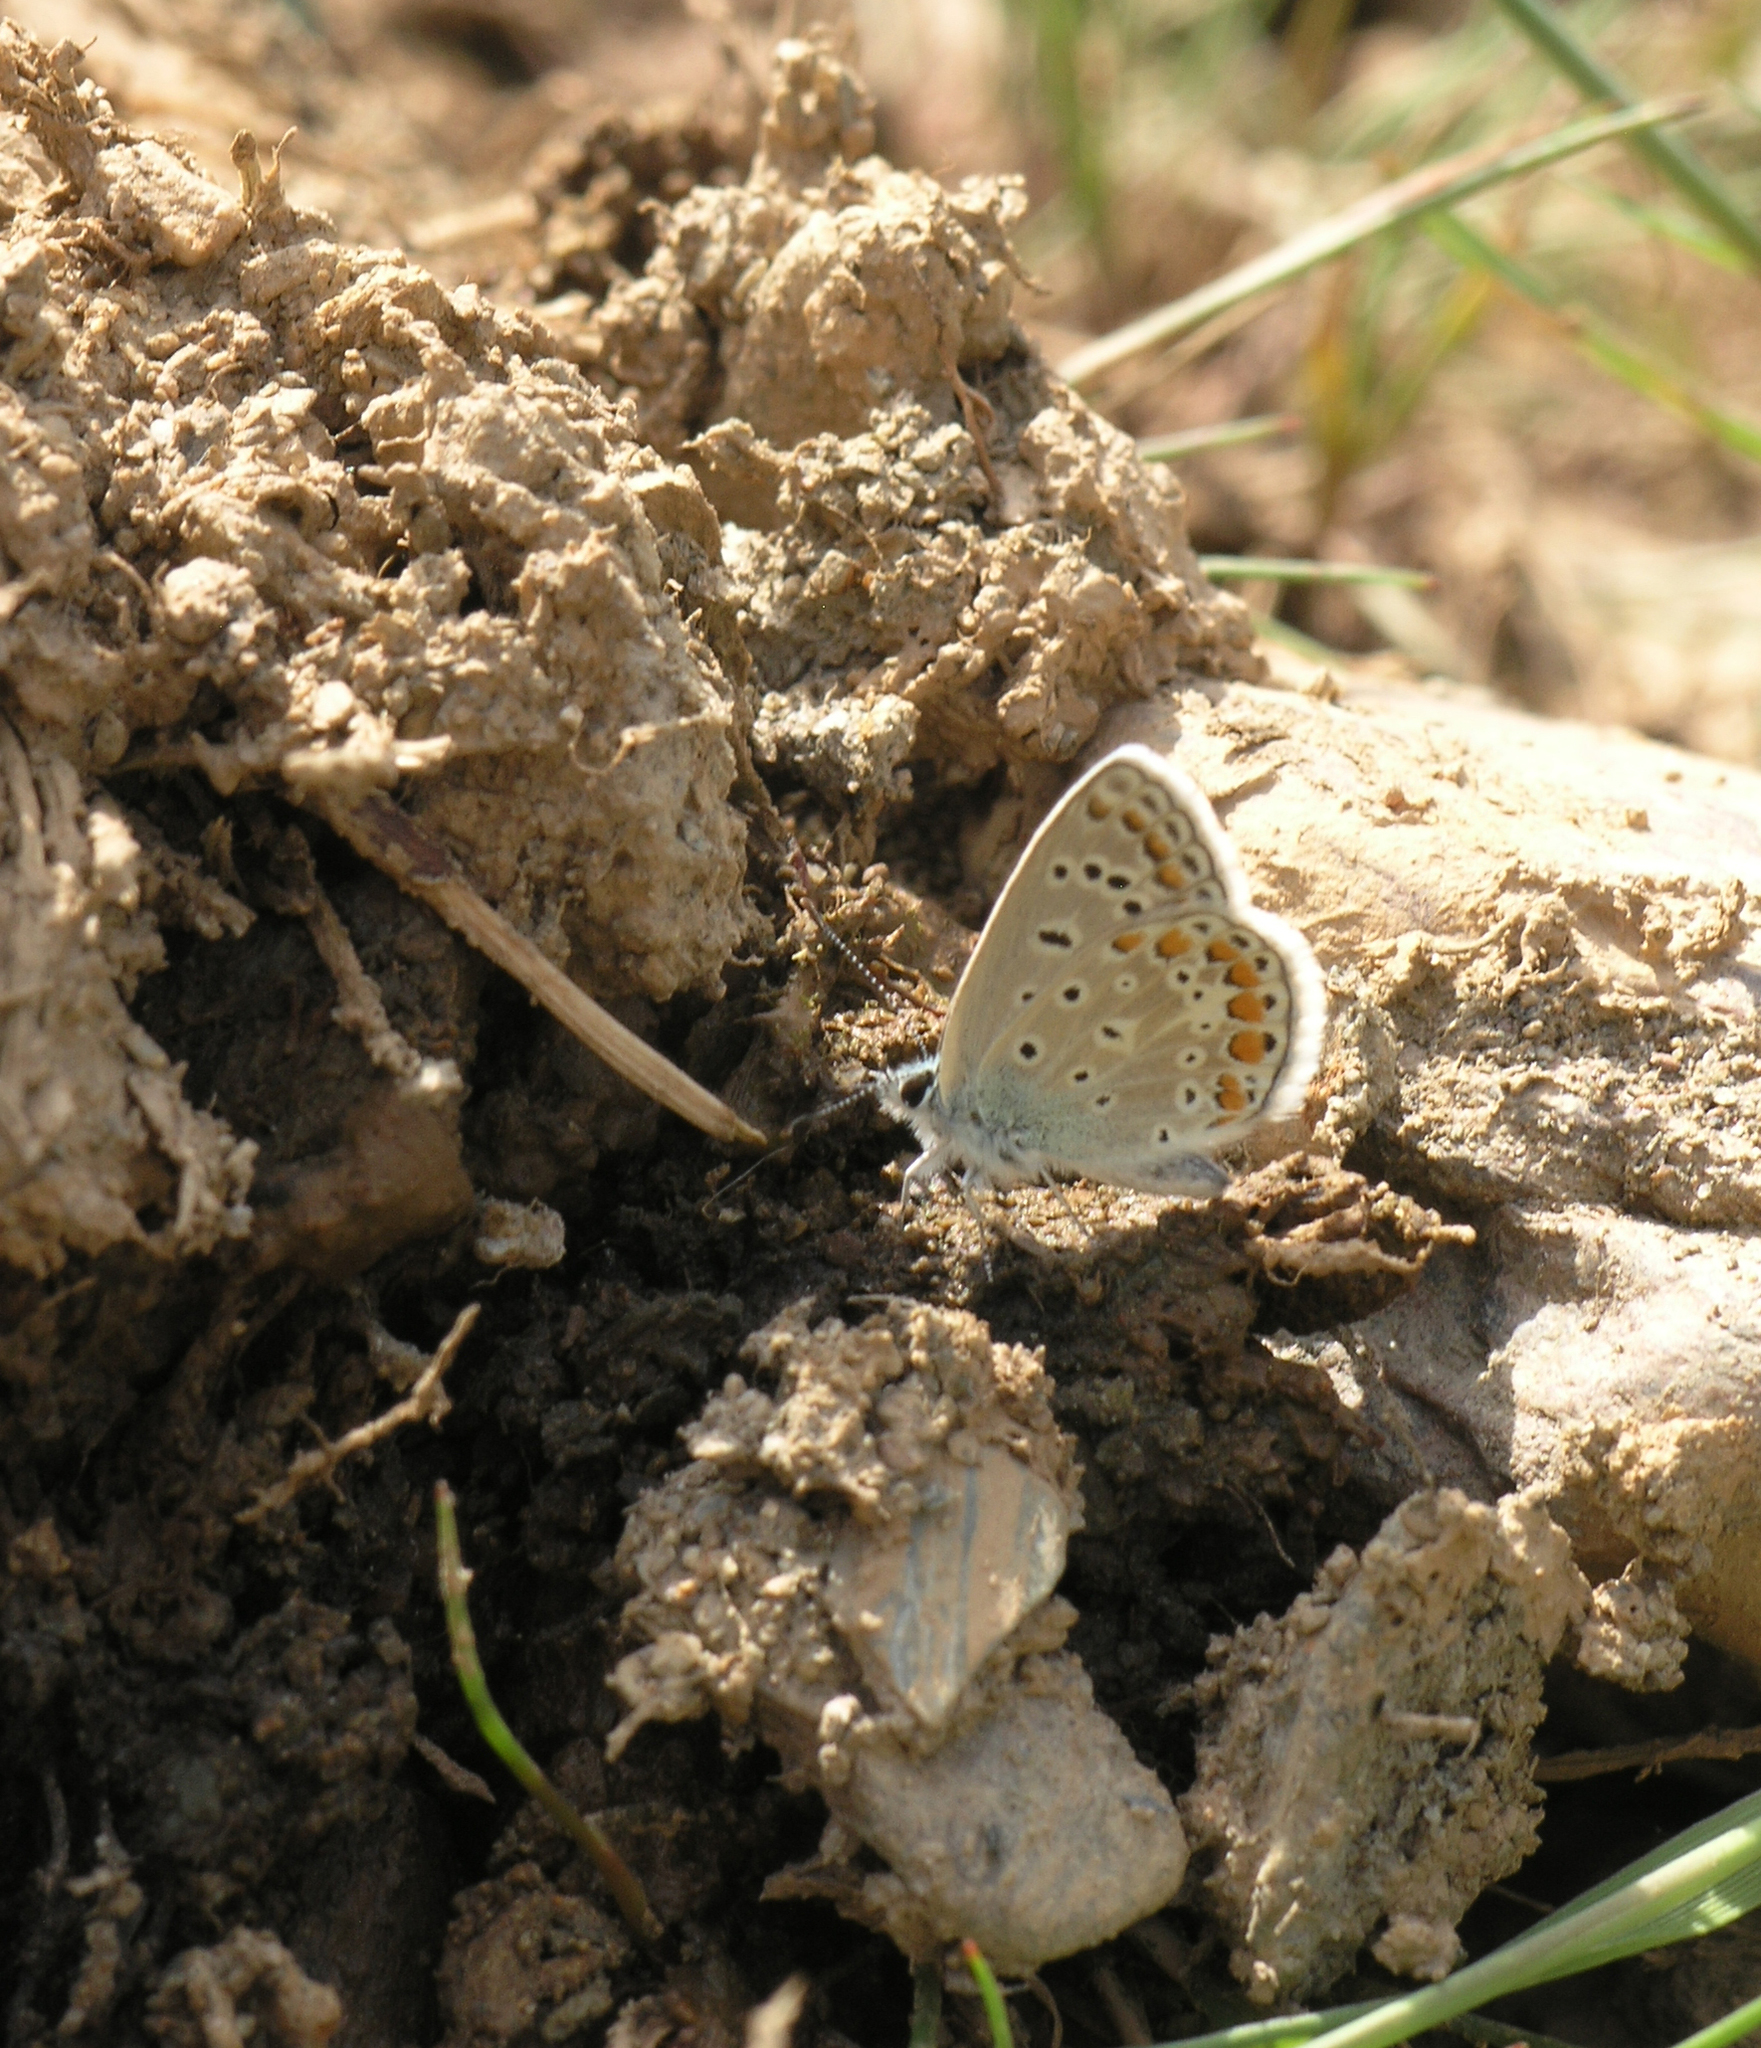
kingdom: Animalia
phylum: Arthropoda
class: Insecta
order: Lepidoptera
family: Lycaenidae
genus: Polyommatus
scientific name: Polyommatus icarus
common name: Common blue
